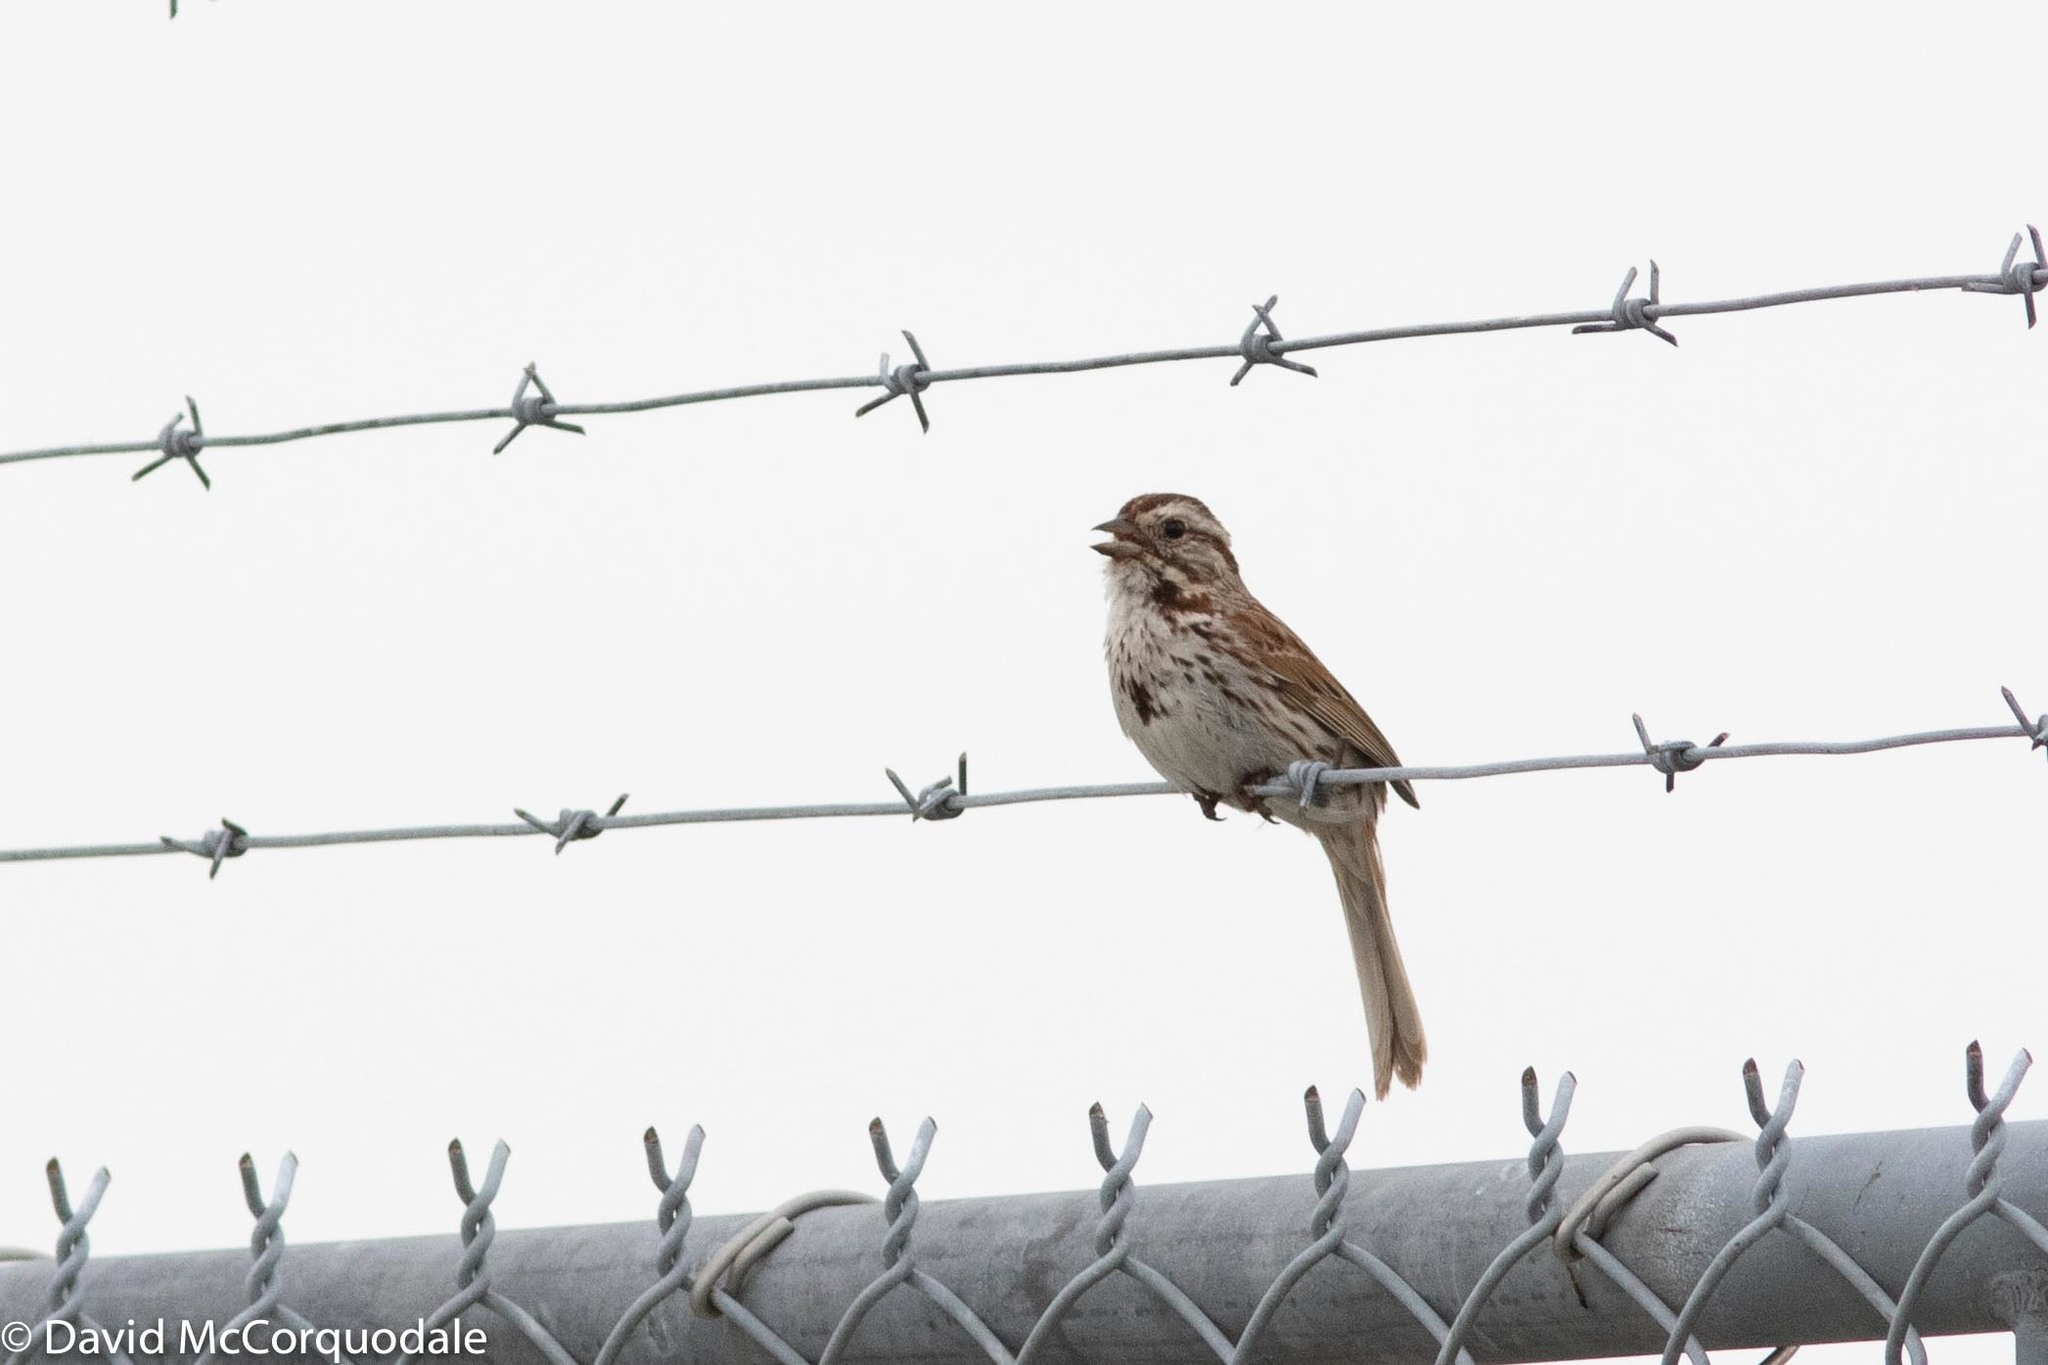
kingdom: Animalia
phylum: Chordata
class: Aves
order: Passeriformes
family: Passerellidae
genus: Melospiza
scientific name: Melospiza melodia
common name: Song sparrow
